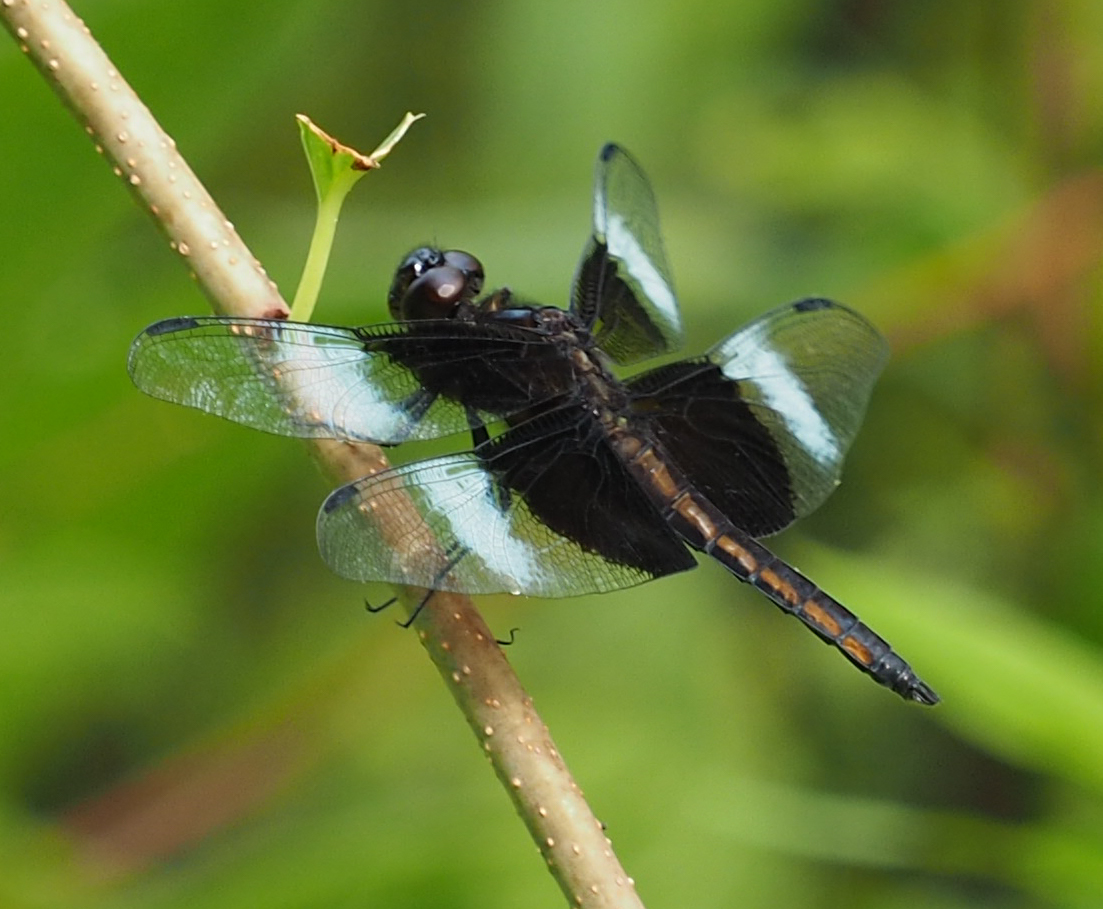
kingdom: Animalia
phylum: Arthropoda
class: Insecta
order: Odonata
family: Libellulidae
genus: Libellula
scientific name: Libellula luctuosa
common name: Widow skimmer
